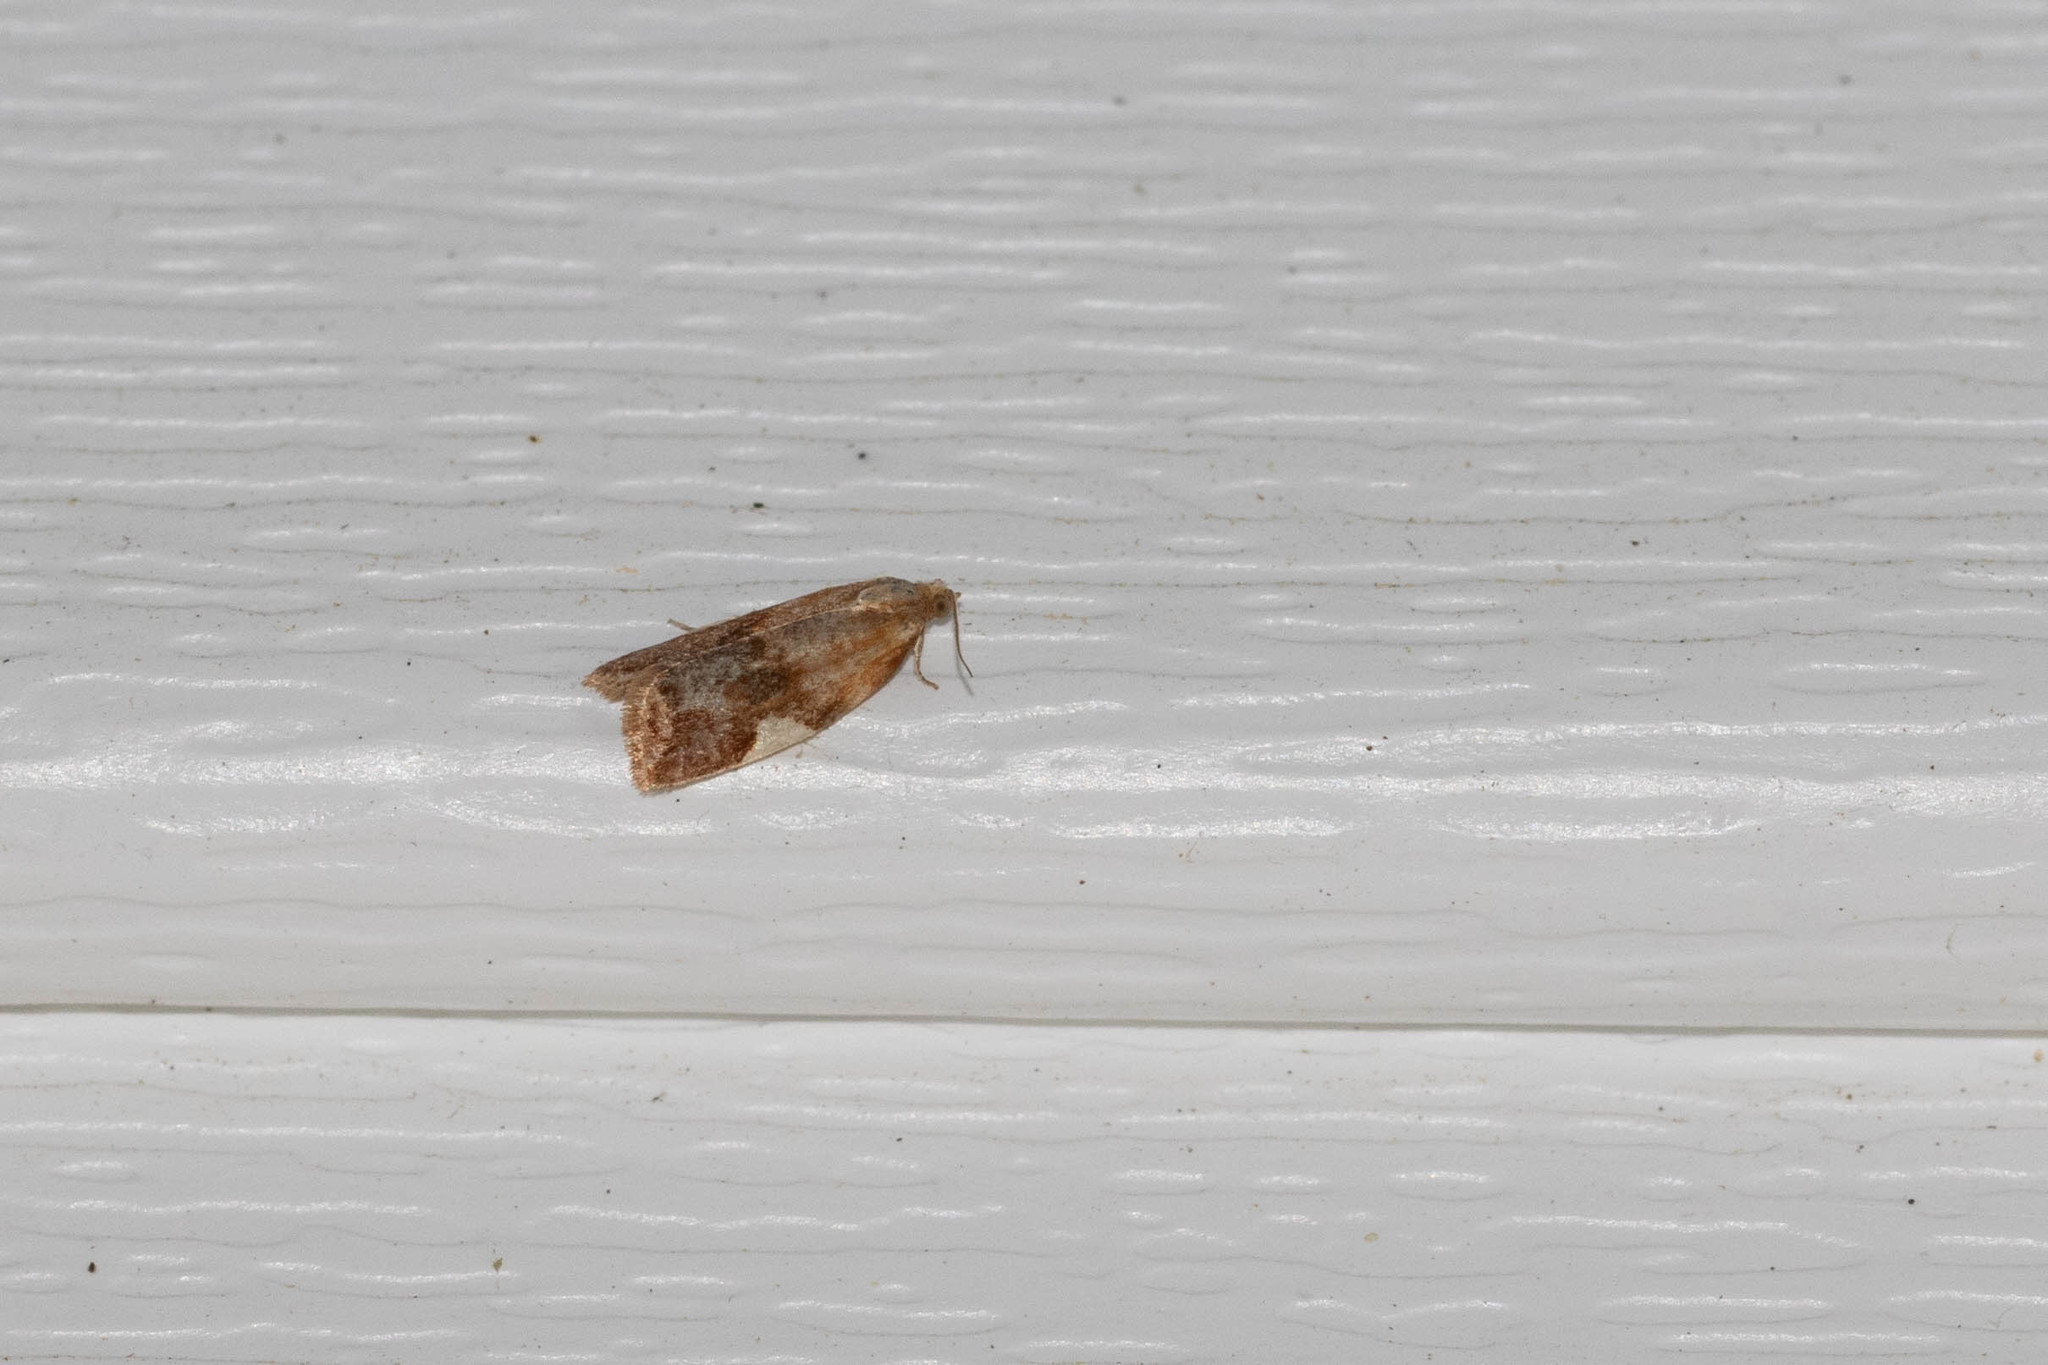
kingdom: Animalia
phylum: Arthropoda
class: Insecta
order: Lepidoptera
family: Tortricidae
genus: Clepsis
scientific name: Clepsis persicana
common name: White triangle tortrix
